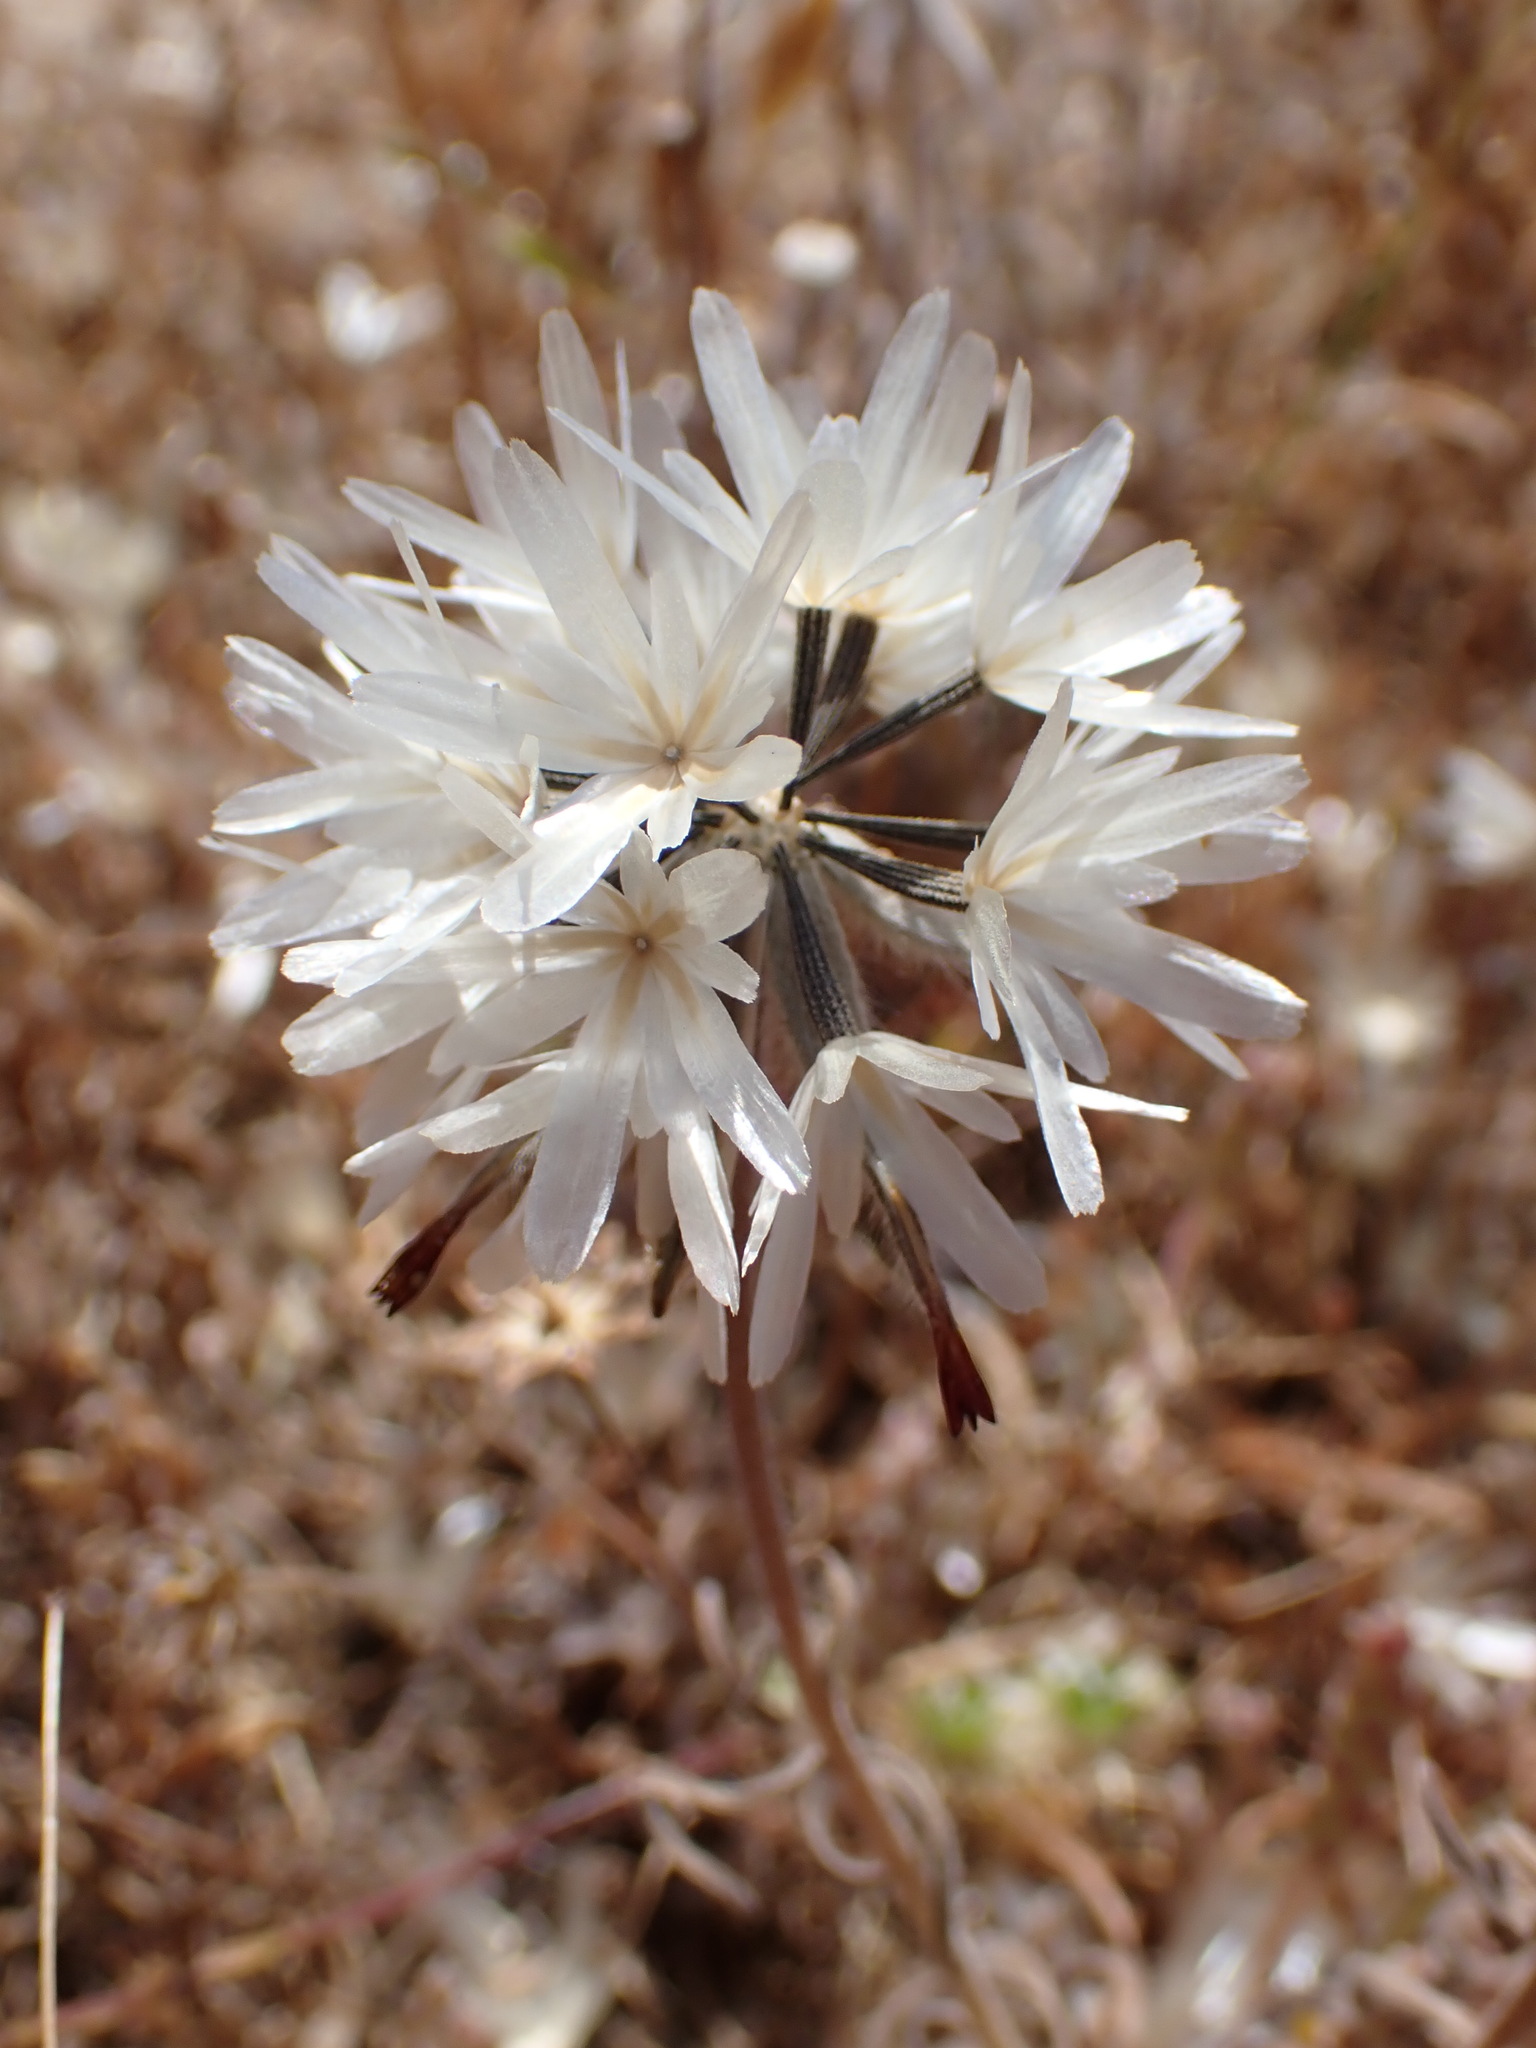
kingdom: Plantae
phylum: Tracheophyta
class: Magnoliopsida
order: Asterales
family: Asteraceae
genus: Achyrachaena
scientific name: Achyrachaena mollis
